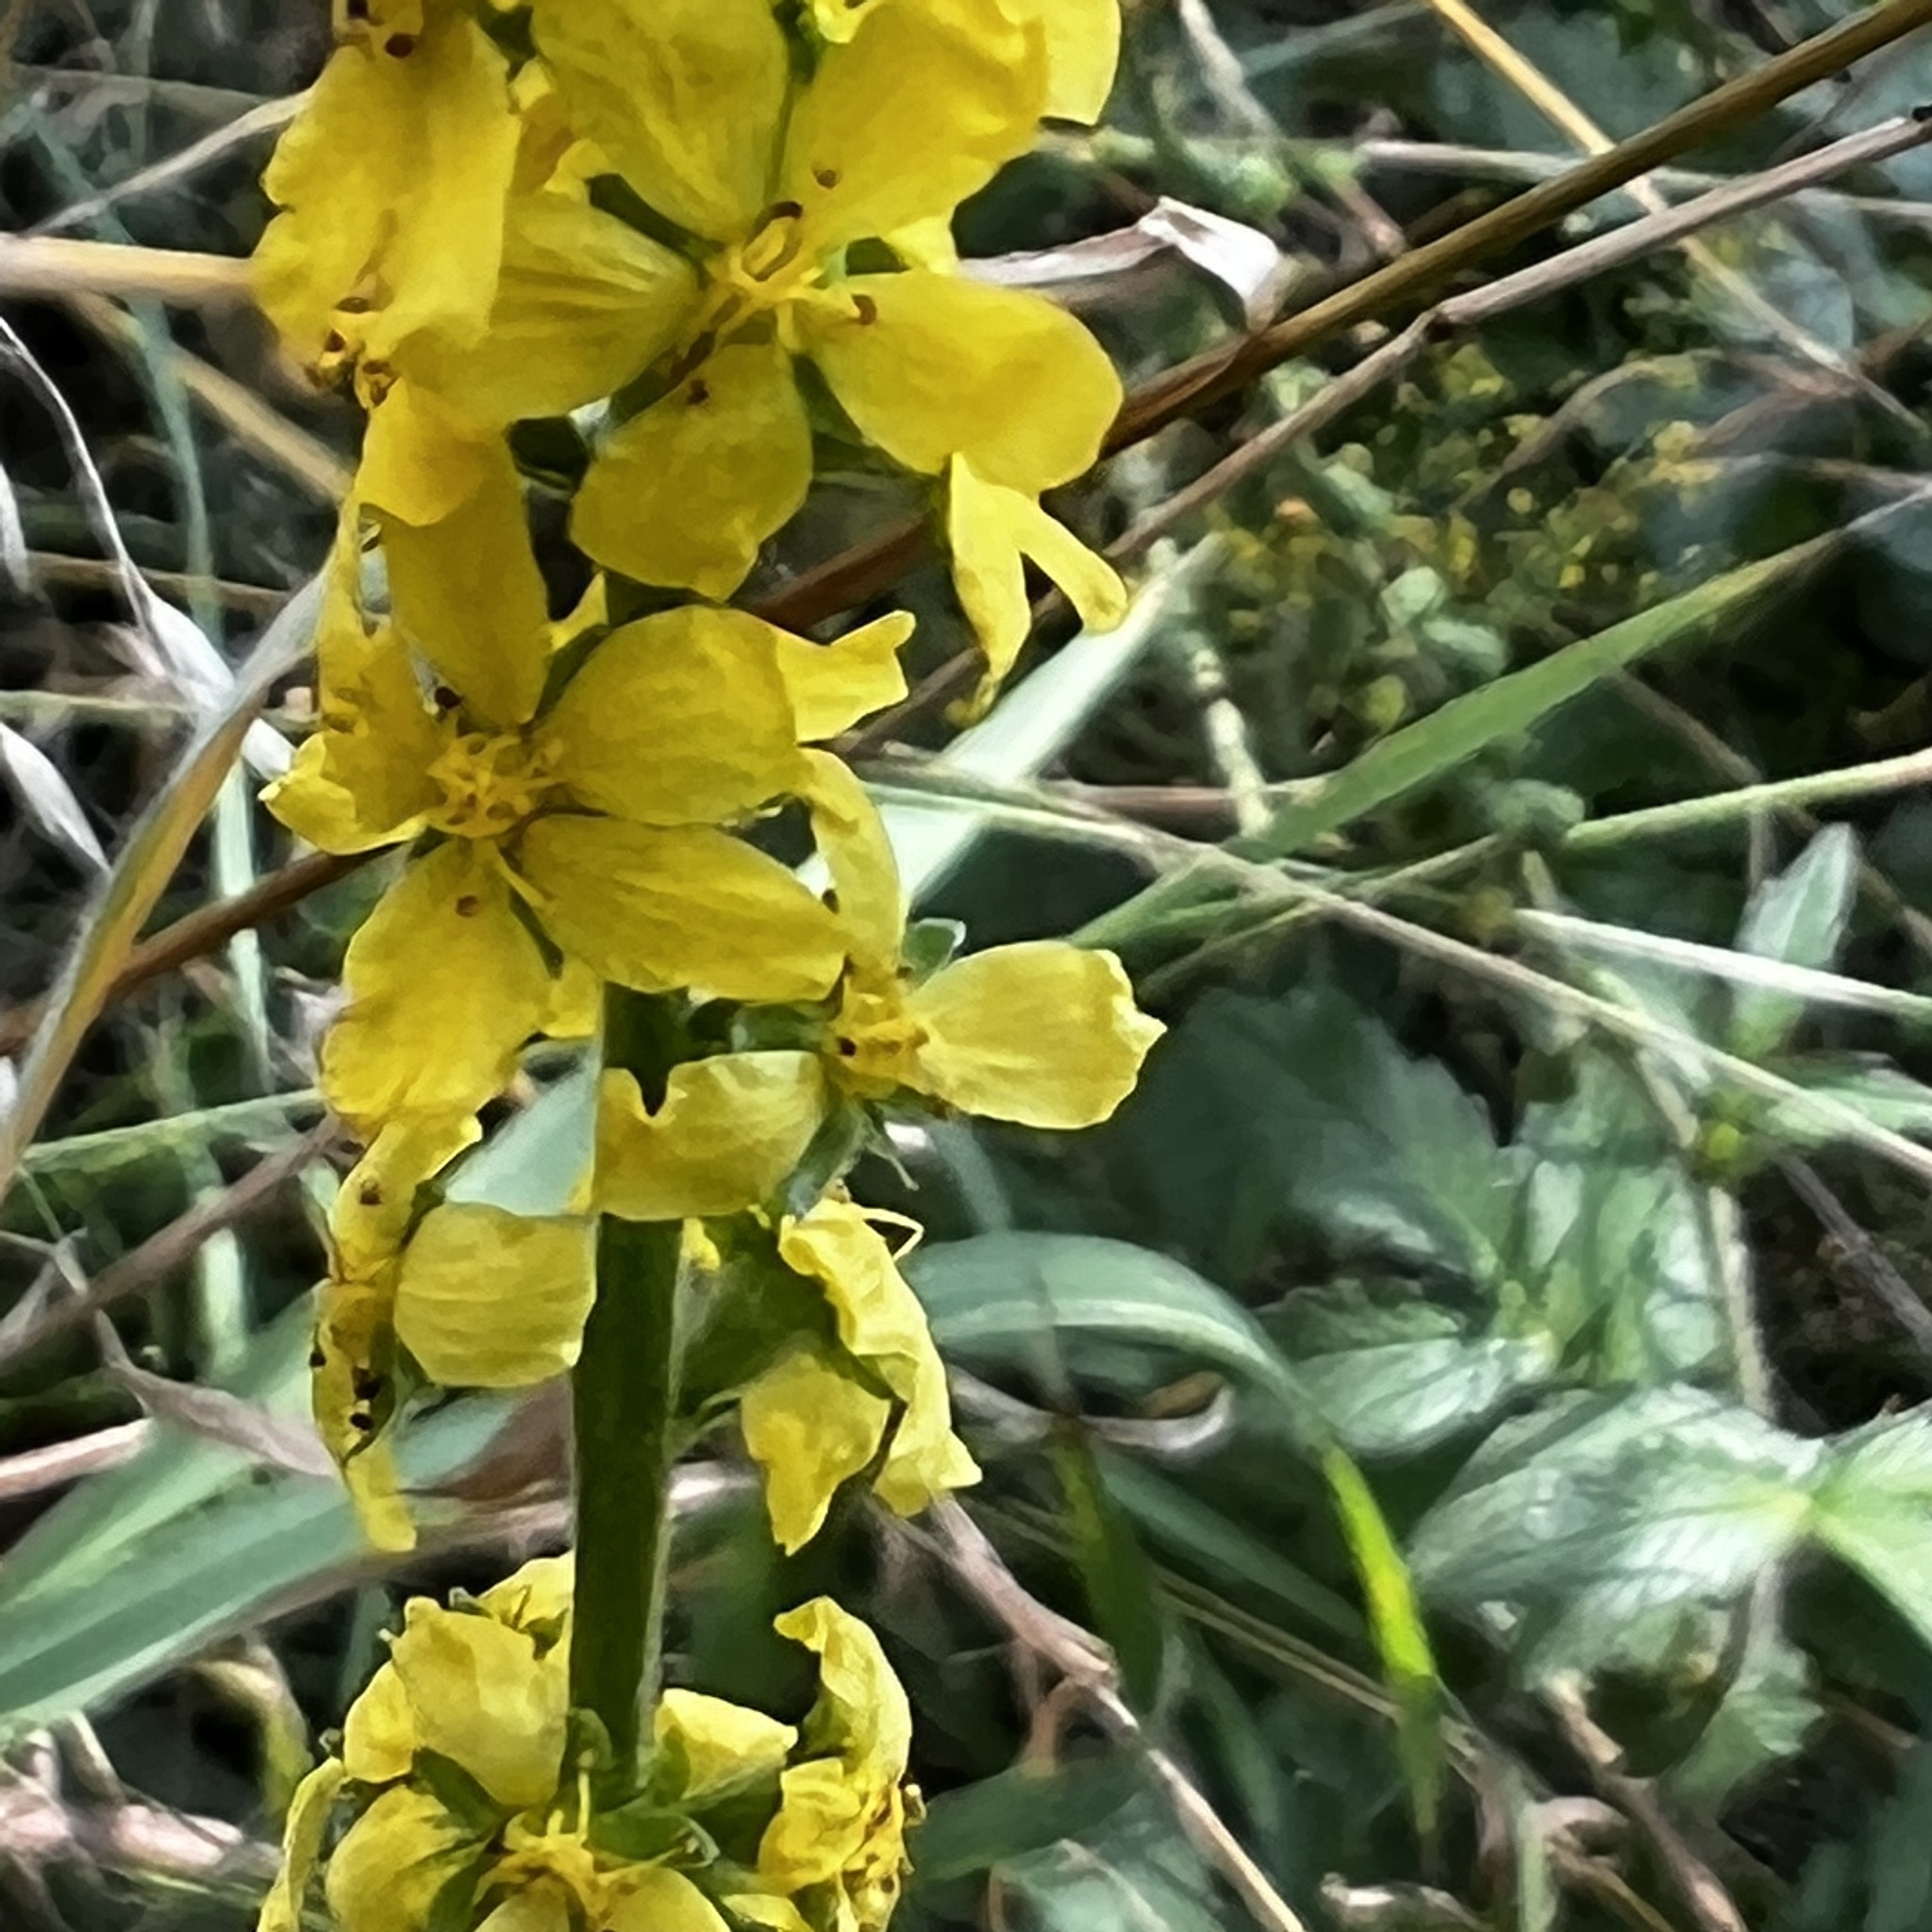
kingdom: Plantae
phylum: Tracheophyta
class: Magnoliopsida
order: Rosales
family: Rosaceae
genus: Agrimonia
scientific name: Agrimonia eupatoria
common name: Agrimony
